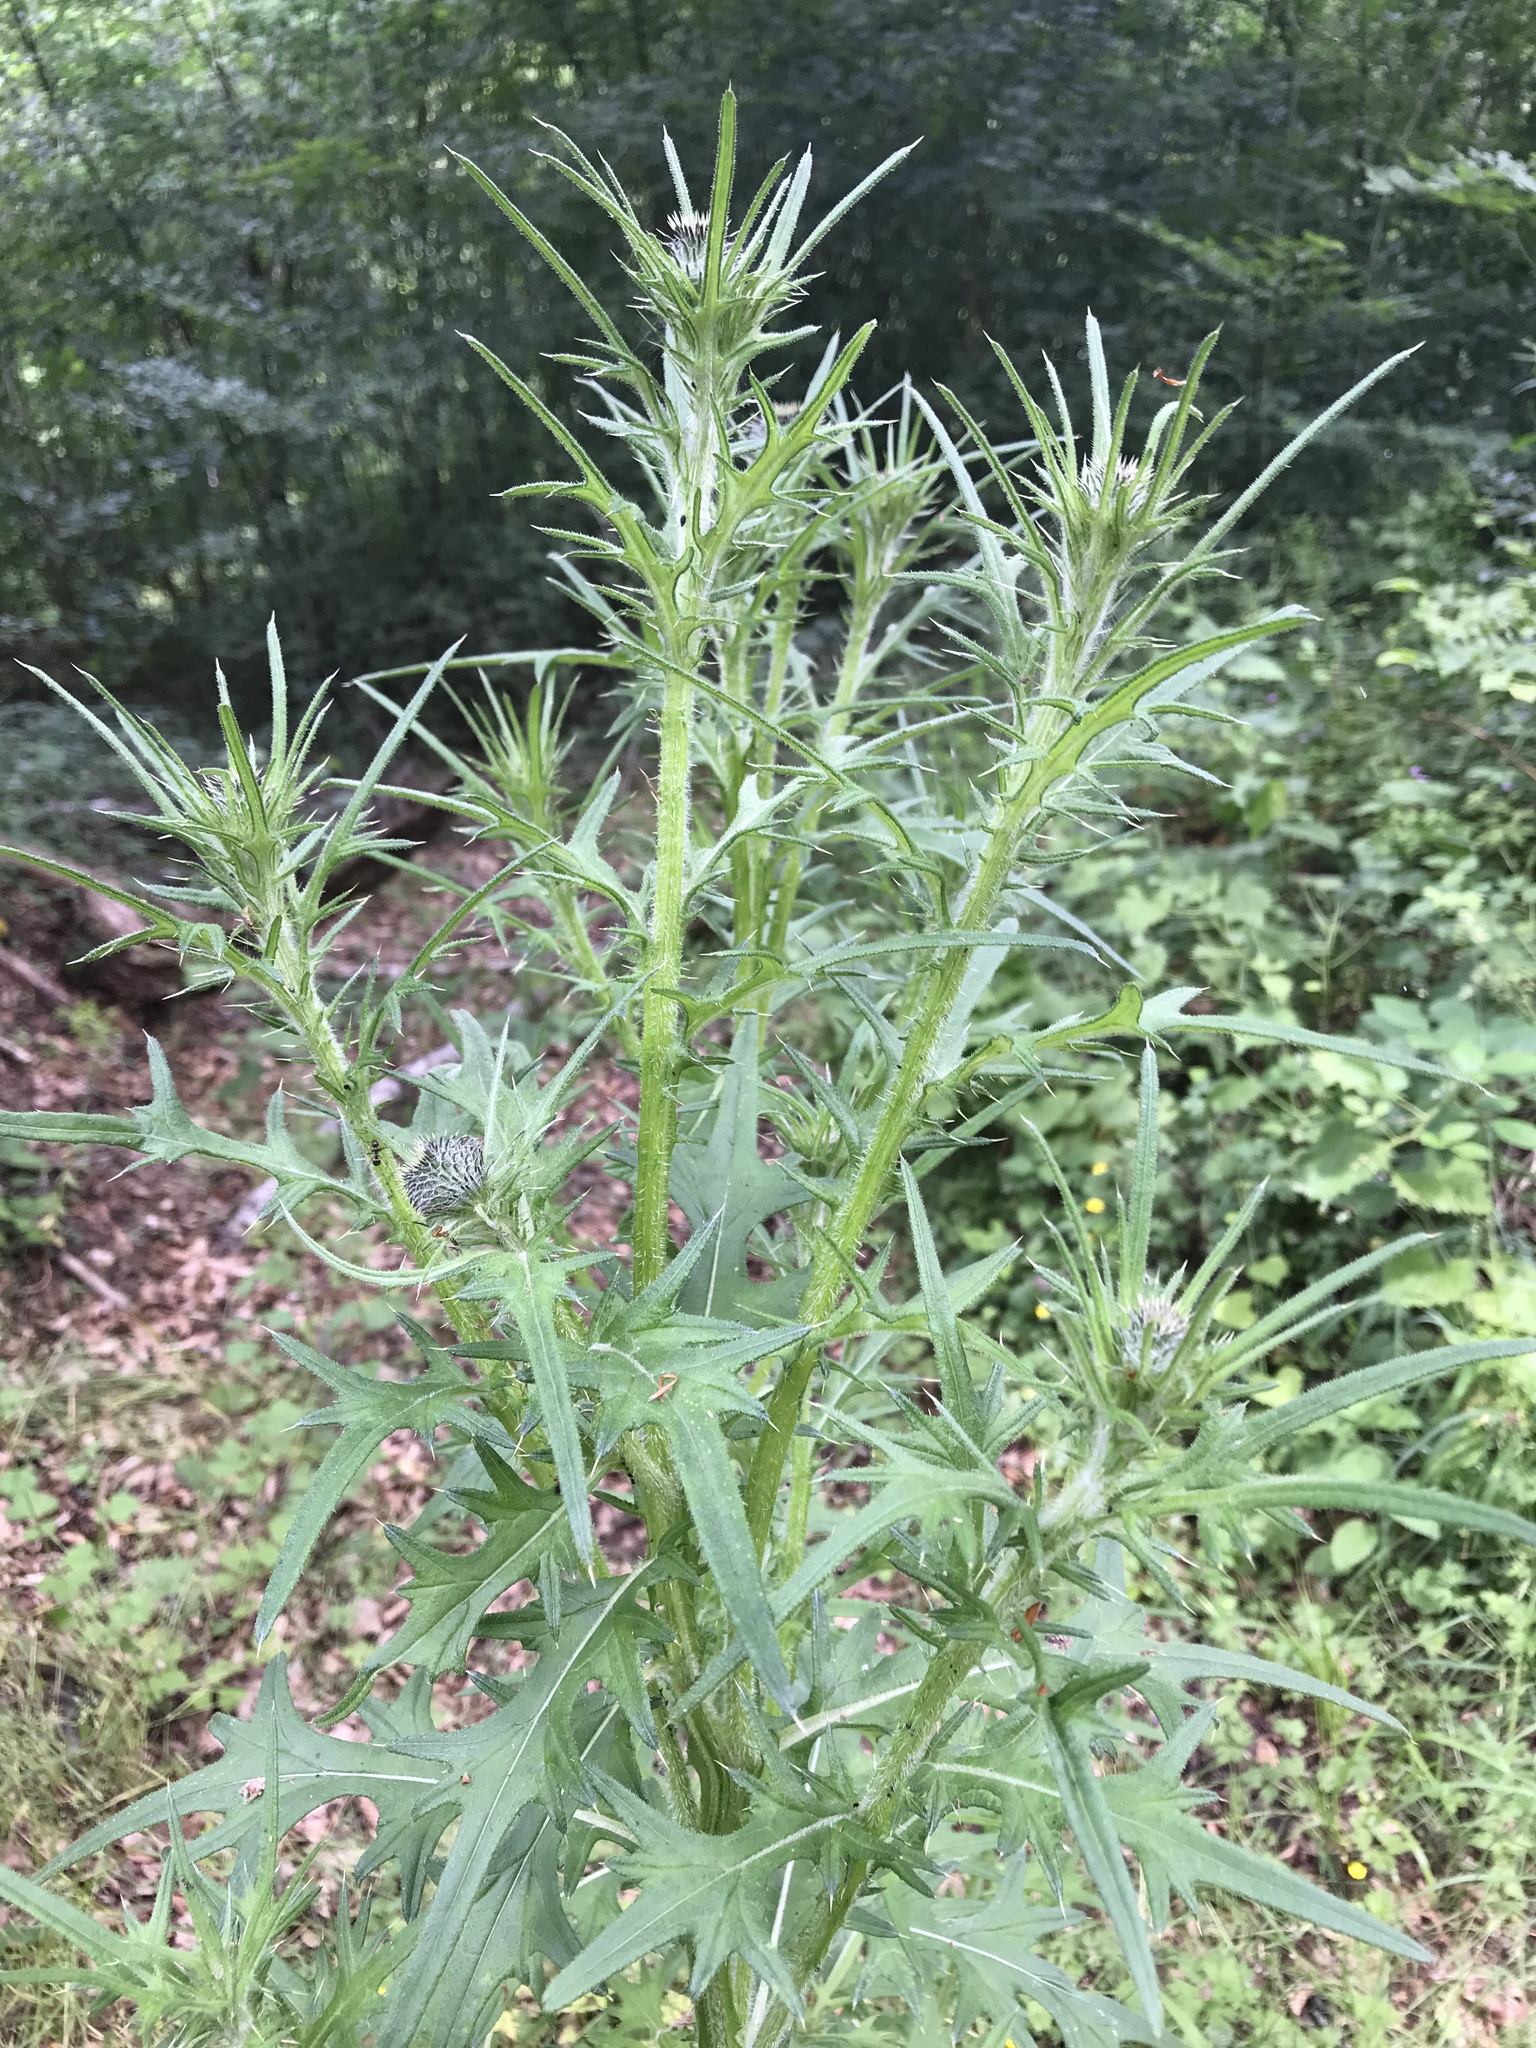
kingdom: Plantae
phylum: Tracheophyta
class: Magnoliopsida
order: Asterales
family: Asteraceae
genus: Cirsium
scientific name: Cirsium vulgare
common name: Bull thistle
